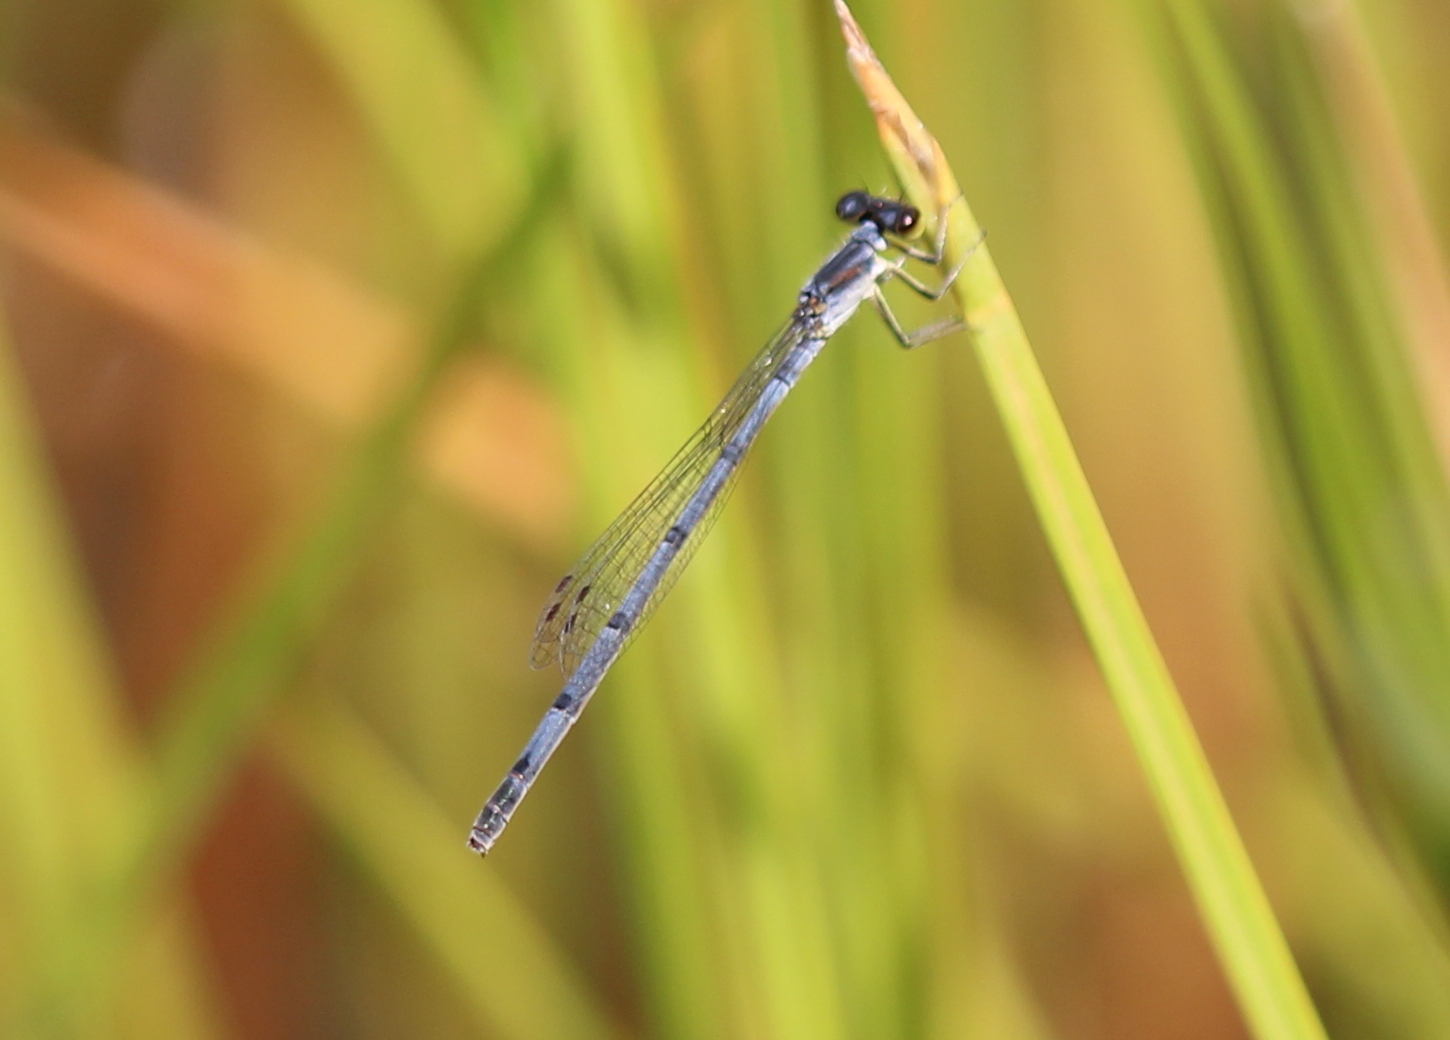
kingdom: Animalia
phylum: Arthropoda
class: Insecta
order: Odonata
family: Coenagrionidae
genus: Ischnura
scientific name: Ischnura posita
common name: Fragile forktail
